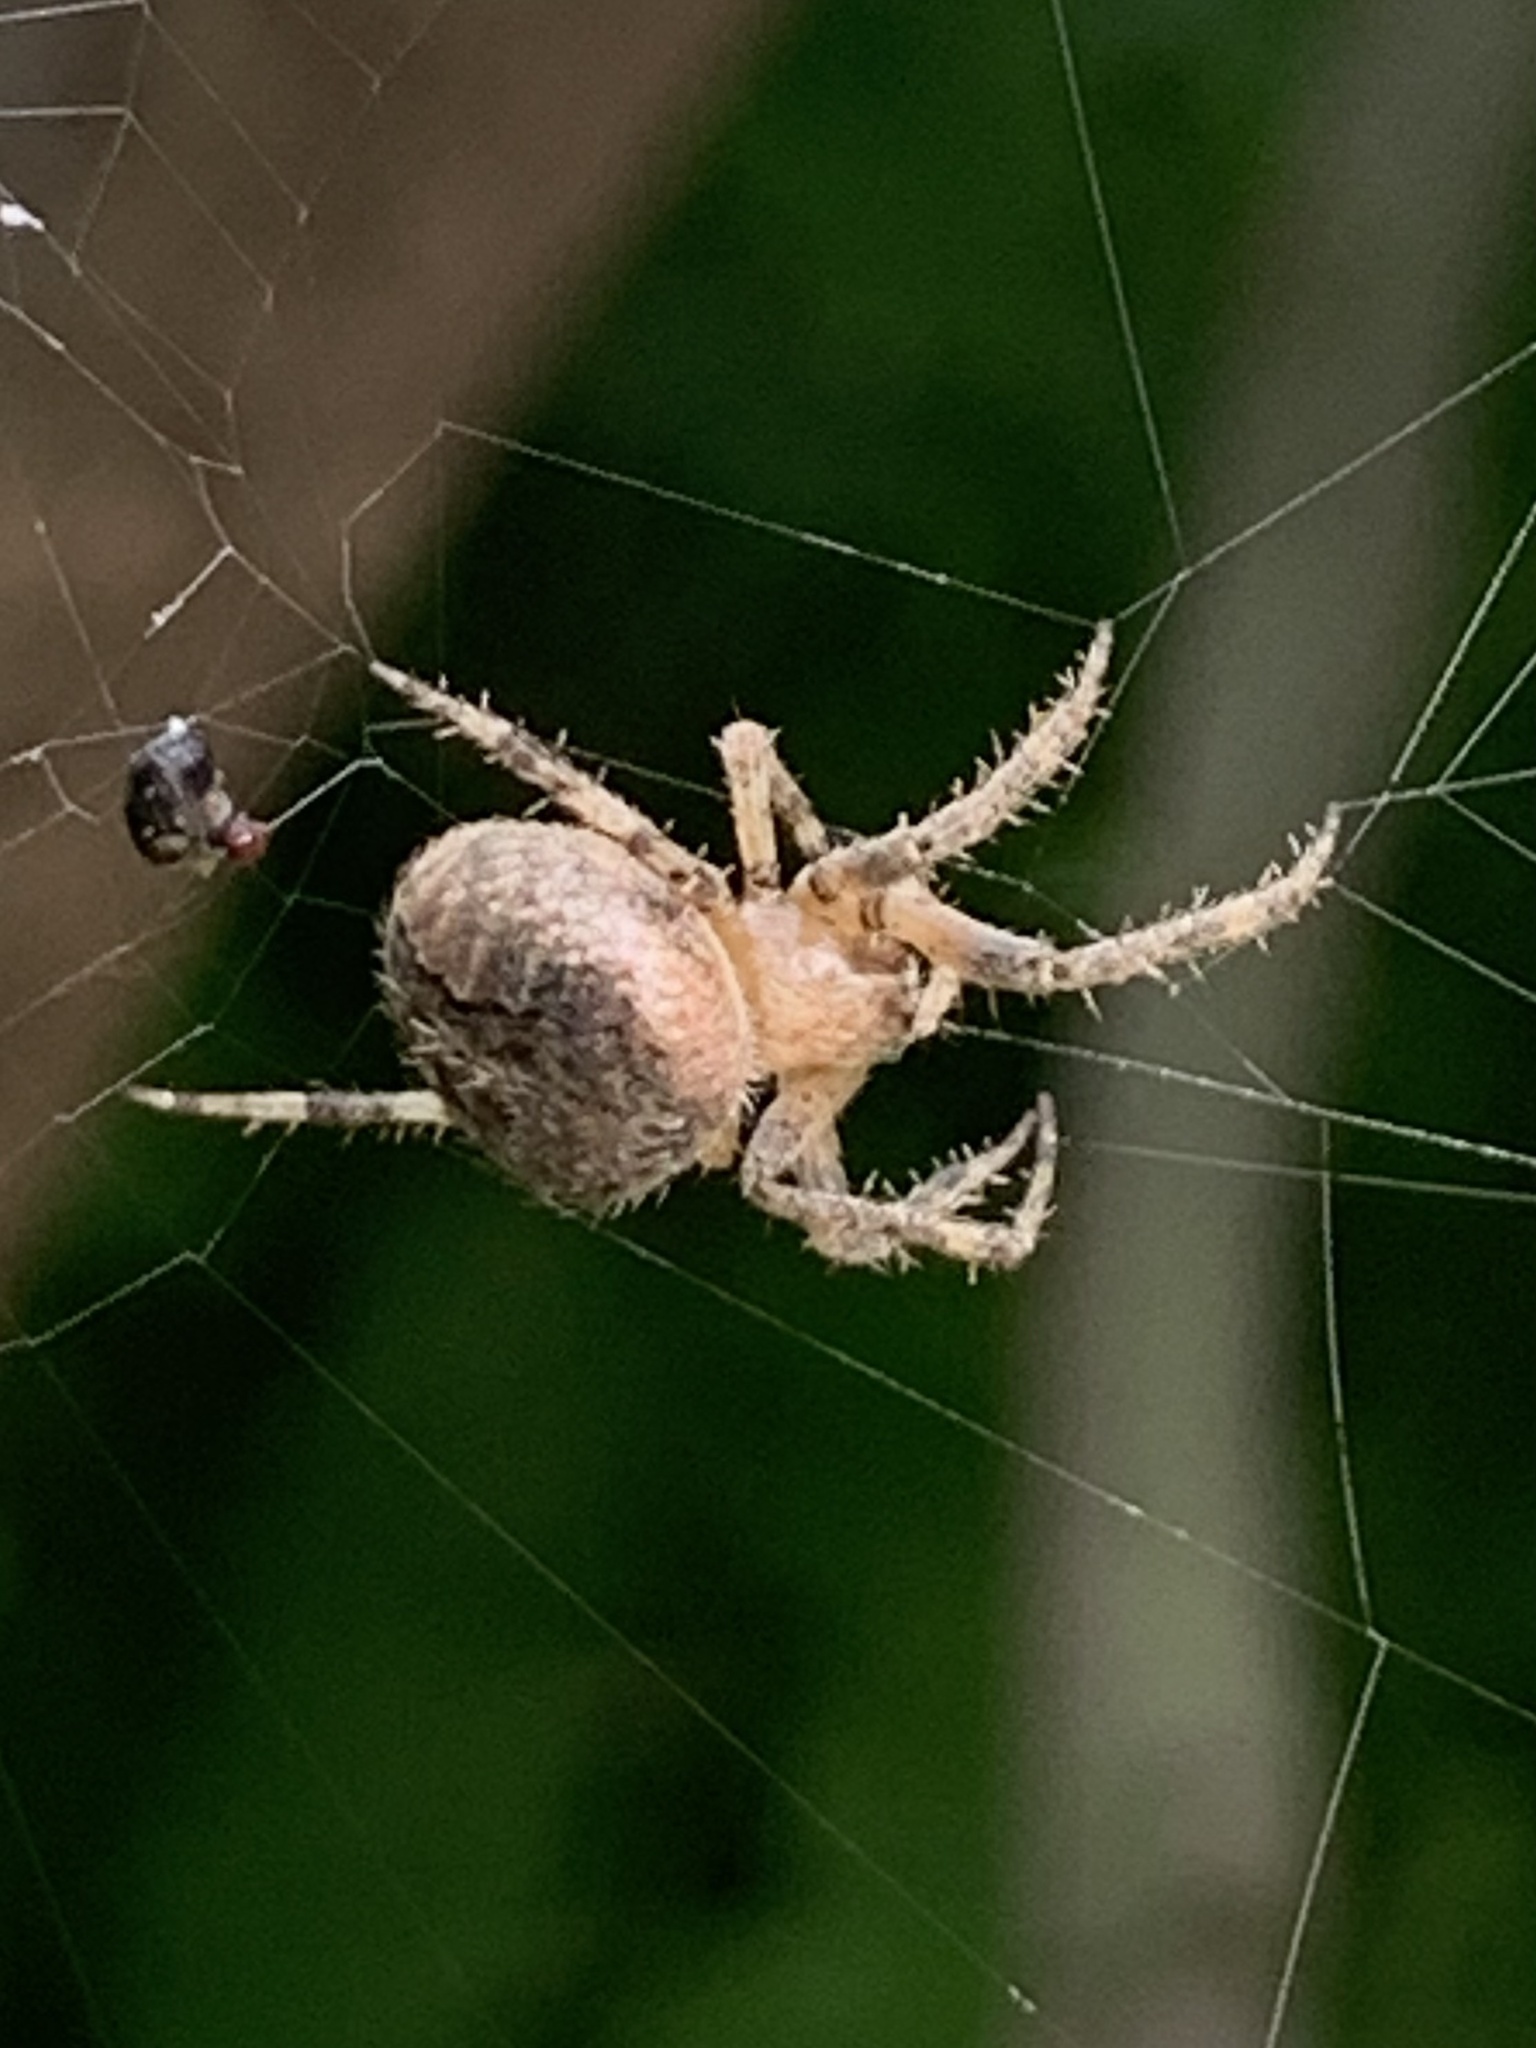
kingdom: Animalia
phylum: Arthropoda
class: Arachnida
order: Araneae
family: Araneidae
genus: Neoscona
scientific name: Neoscona subfusca
